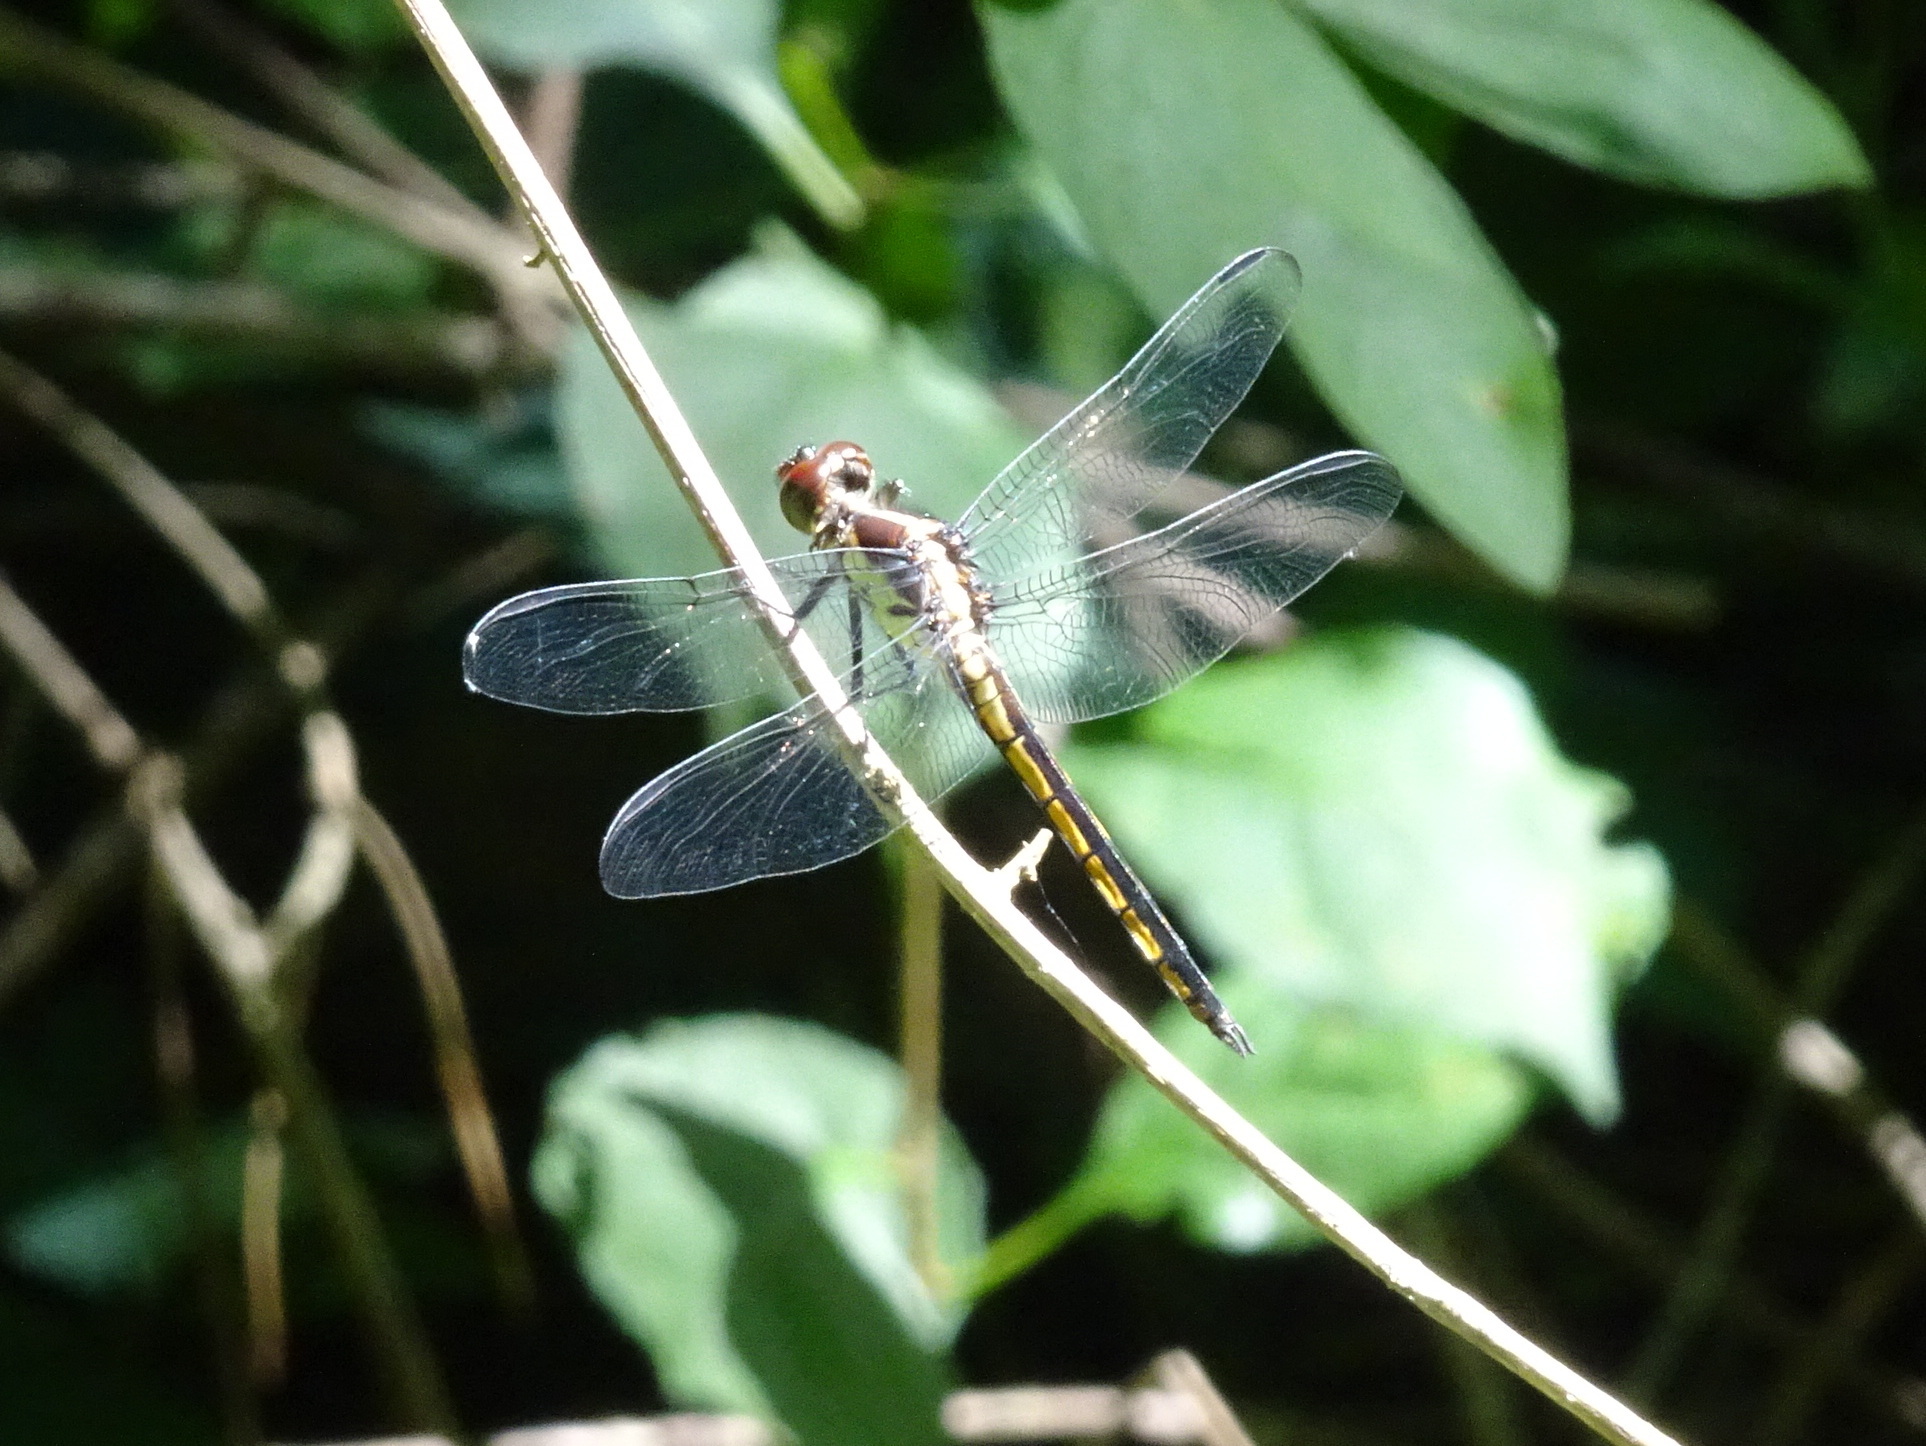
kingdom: Animalia
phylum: Arthropoda
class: Insecta
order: Odonata
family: Libellulidae
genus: Libellula
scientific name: Libellula incesta
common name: Slaty skimmer
